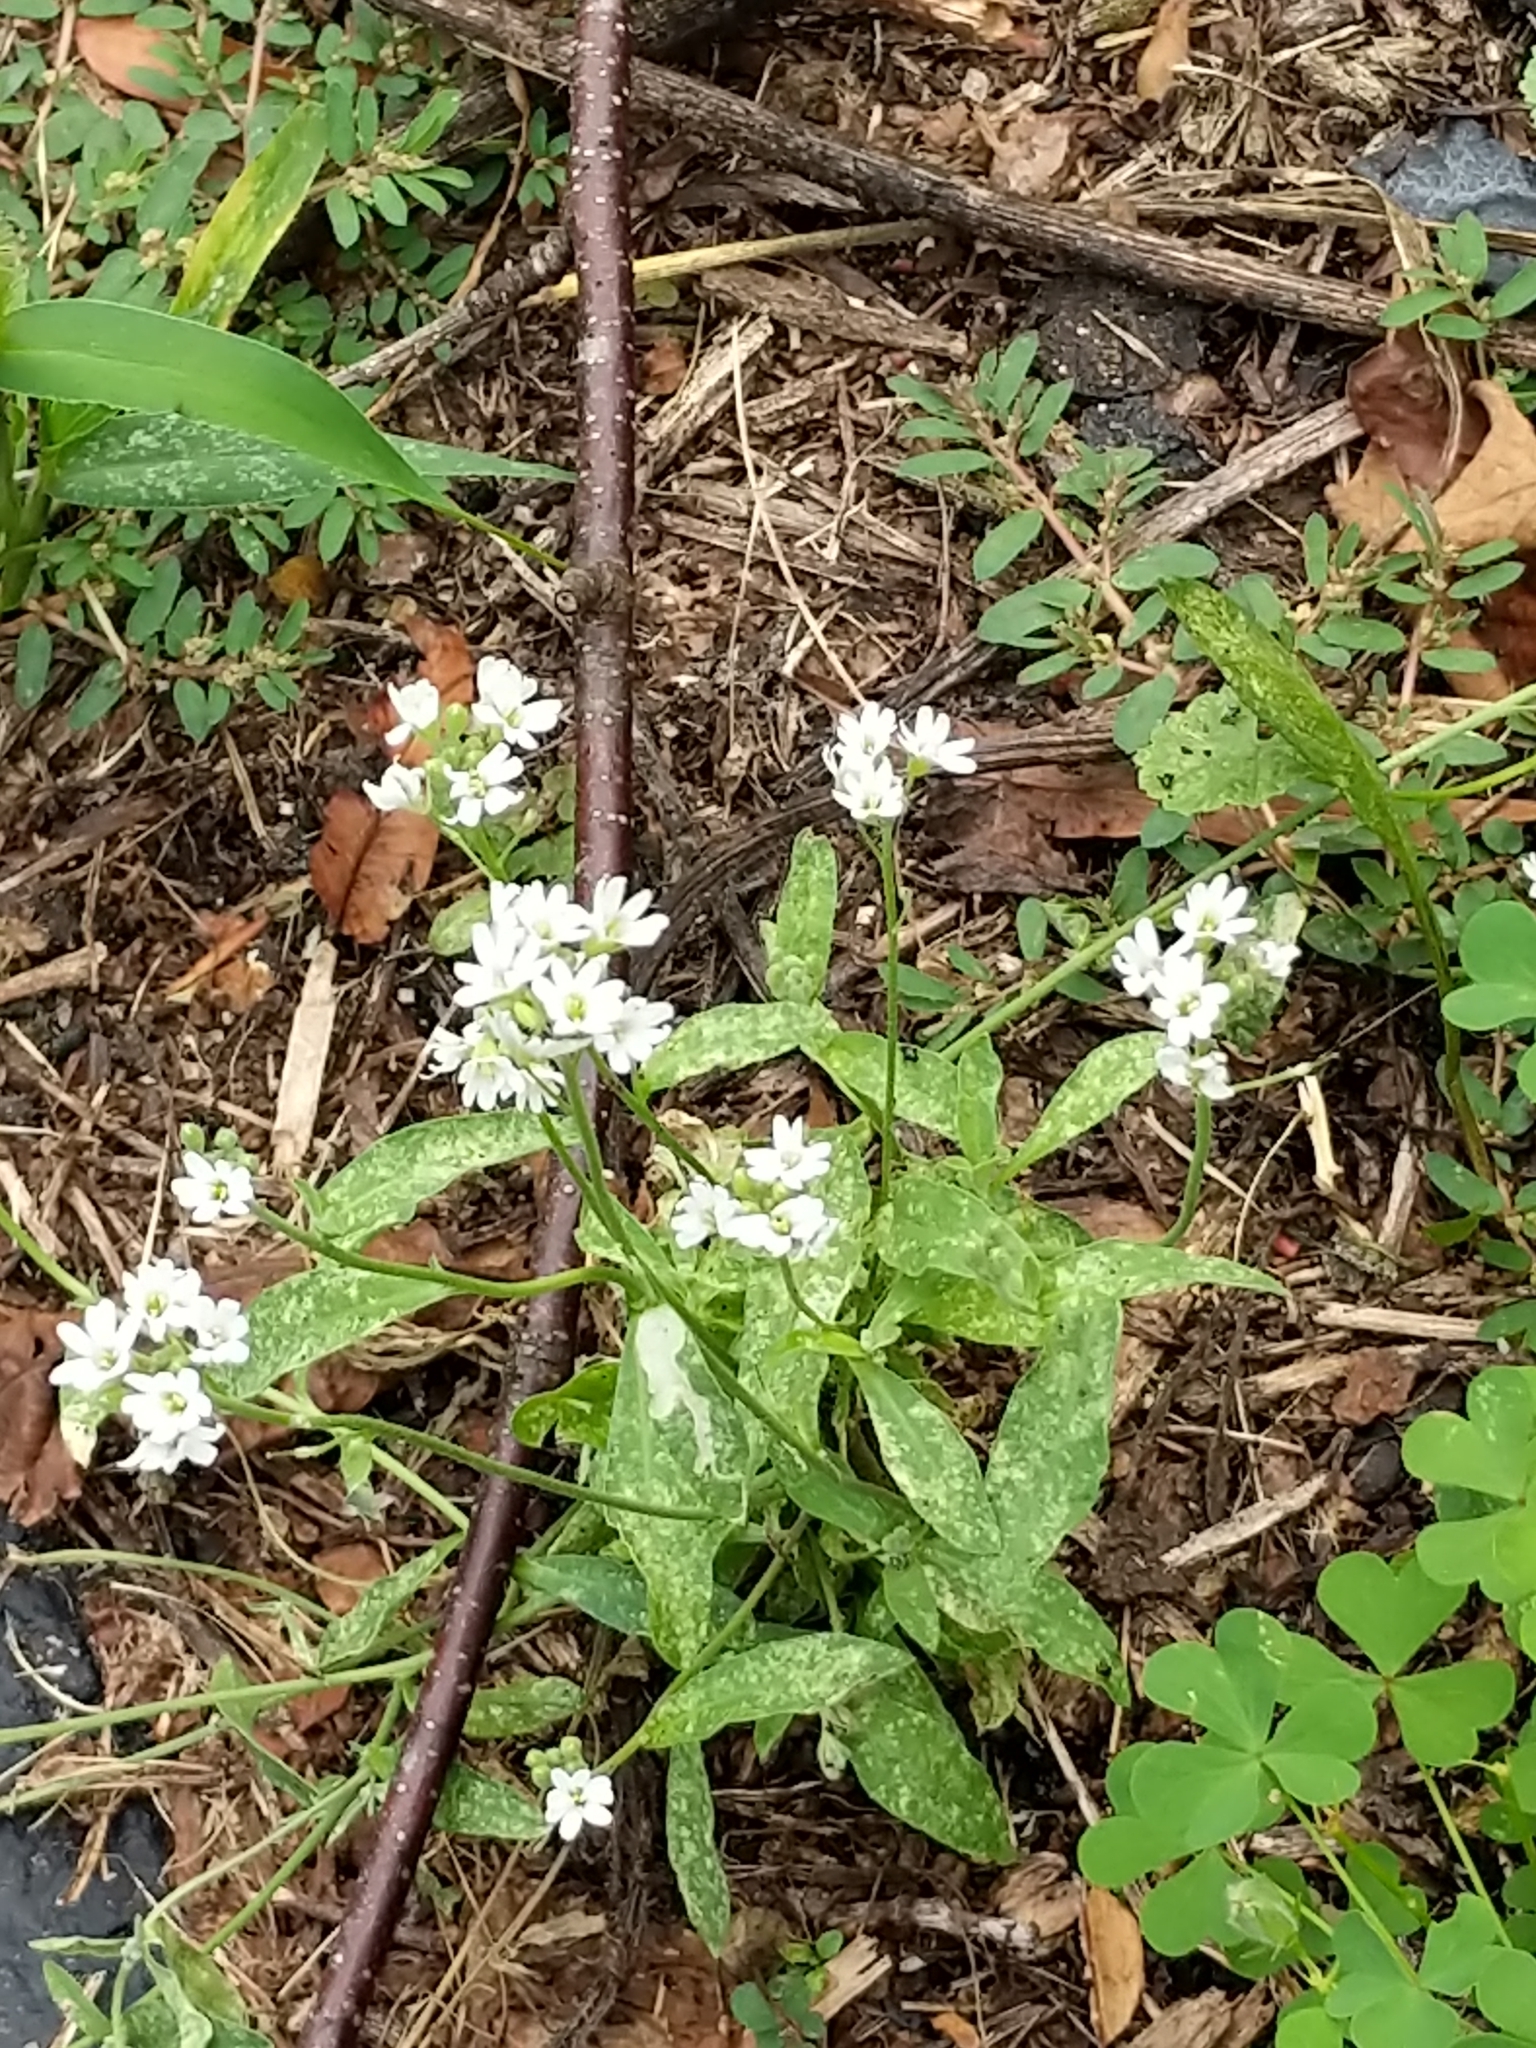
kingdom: Plantae
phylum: Tracheophyta
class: Magnoliopsida
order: Brassicales
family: Brassicaceae
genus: Berteroa
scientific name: Berteroa incana
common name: Hoary alison
